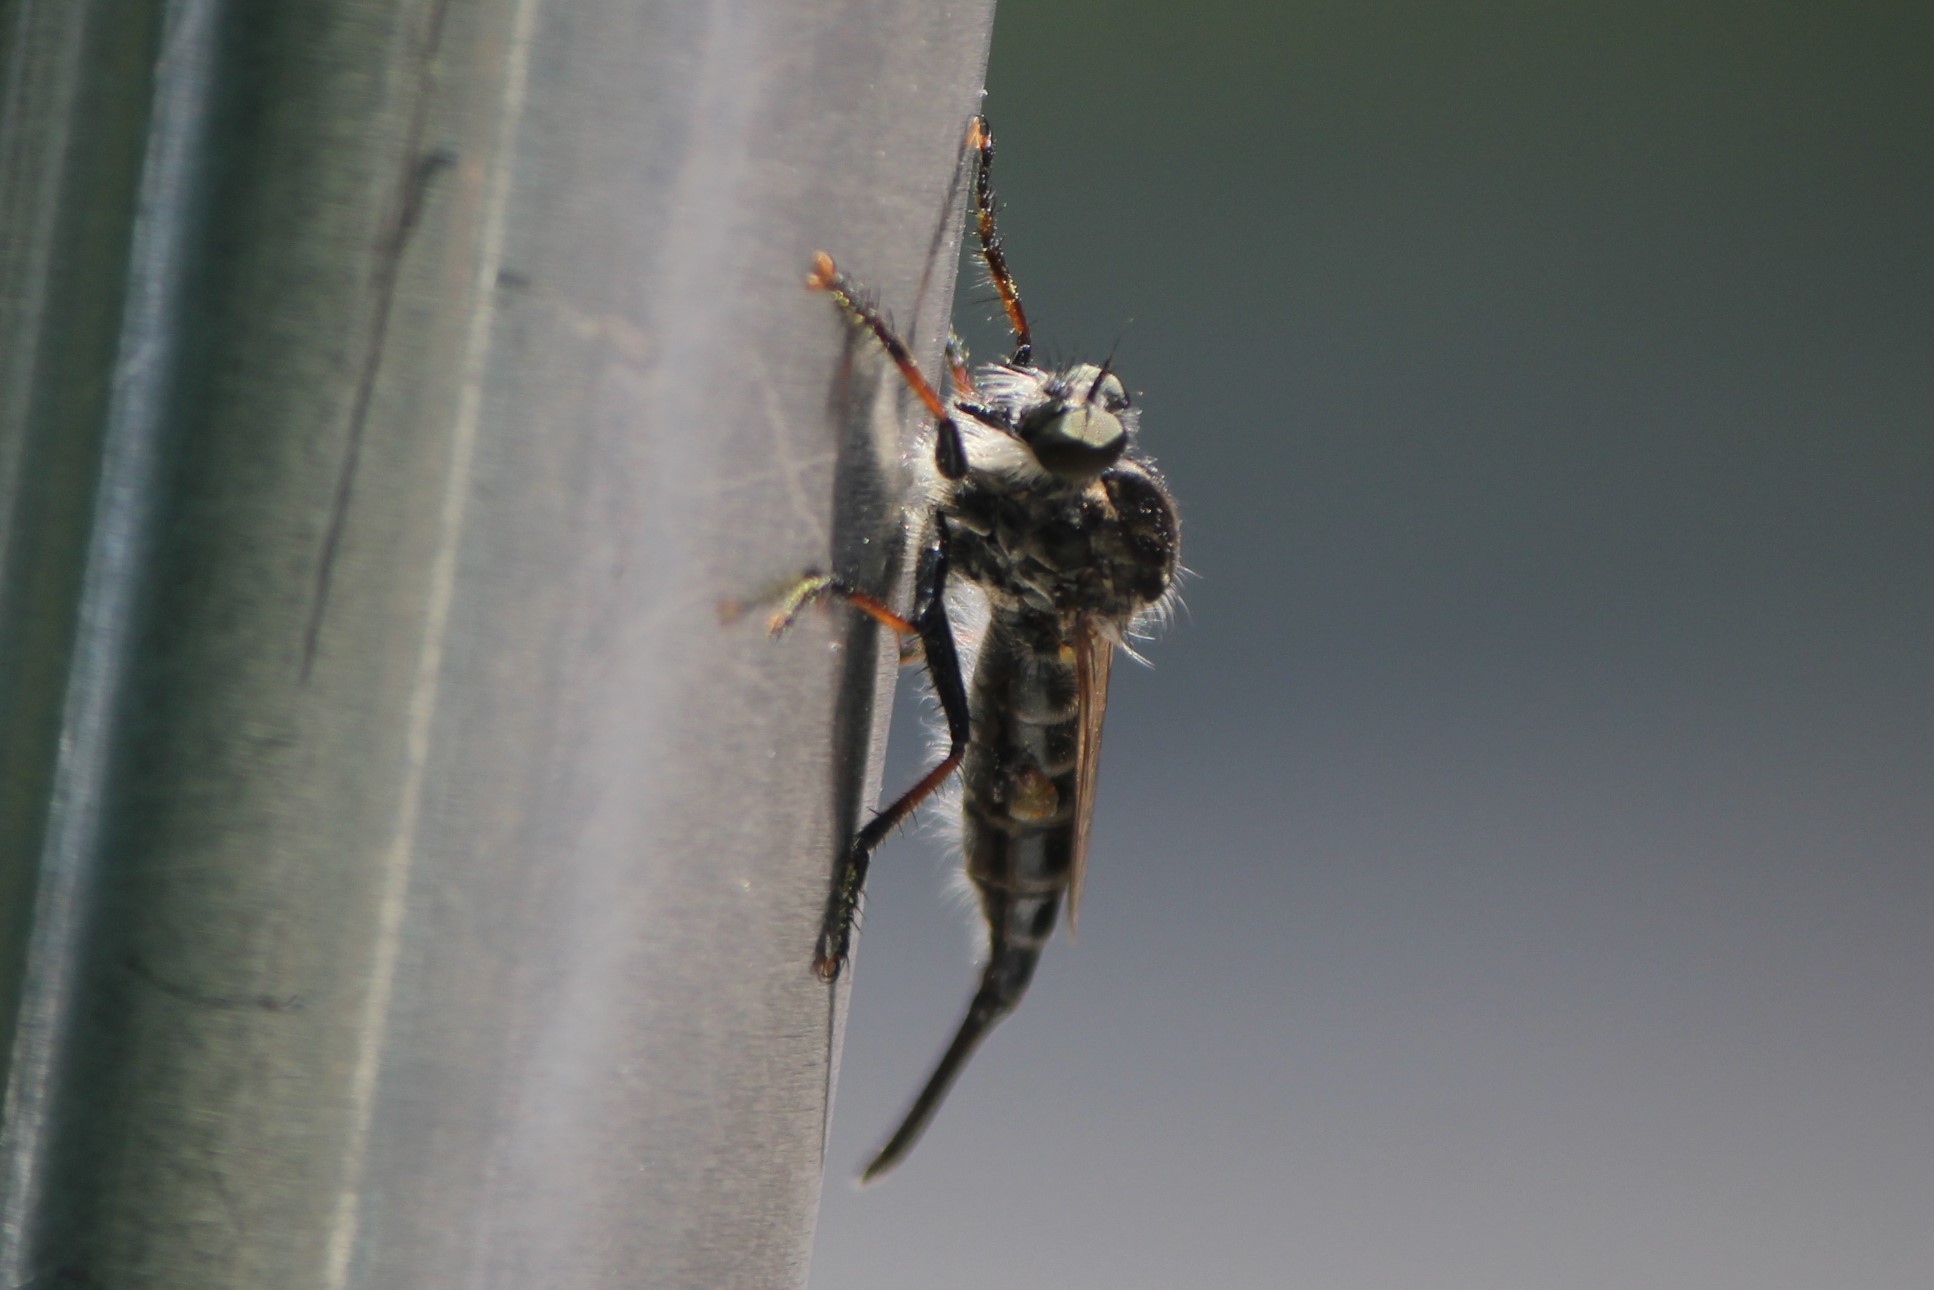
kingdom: Animalia
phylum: Arthropoda
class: Insecta
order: Diptera
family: Asilidae
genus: Efferia
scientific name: Efferia aestuans
